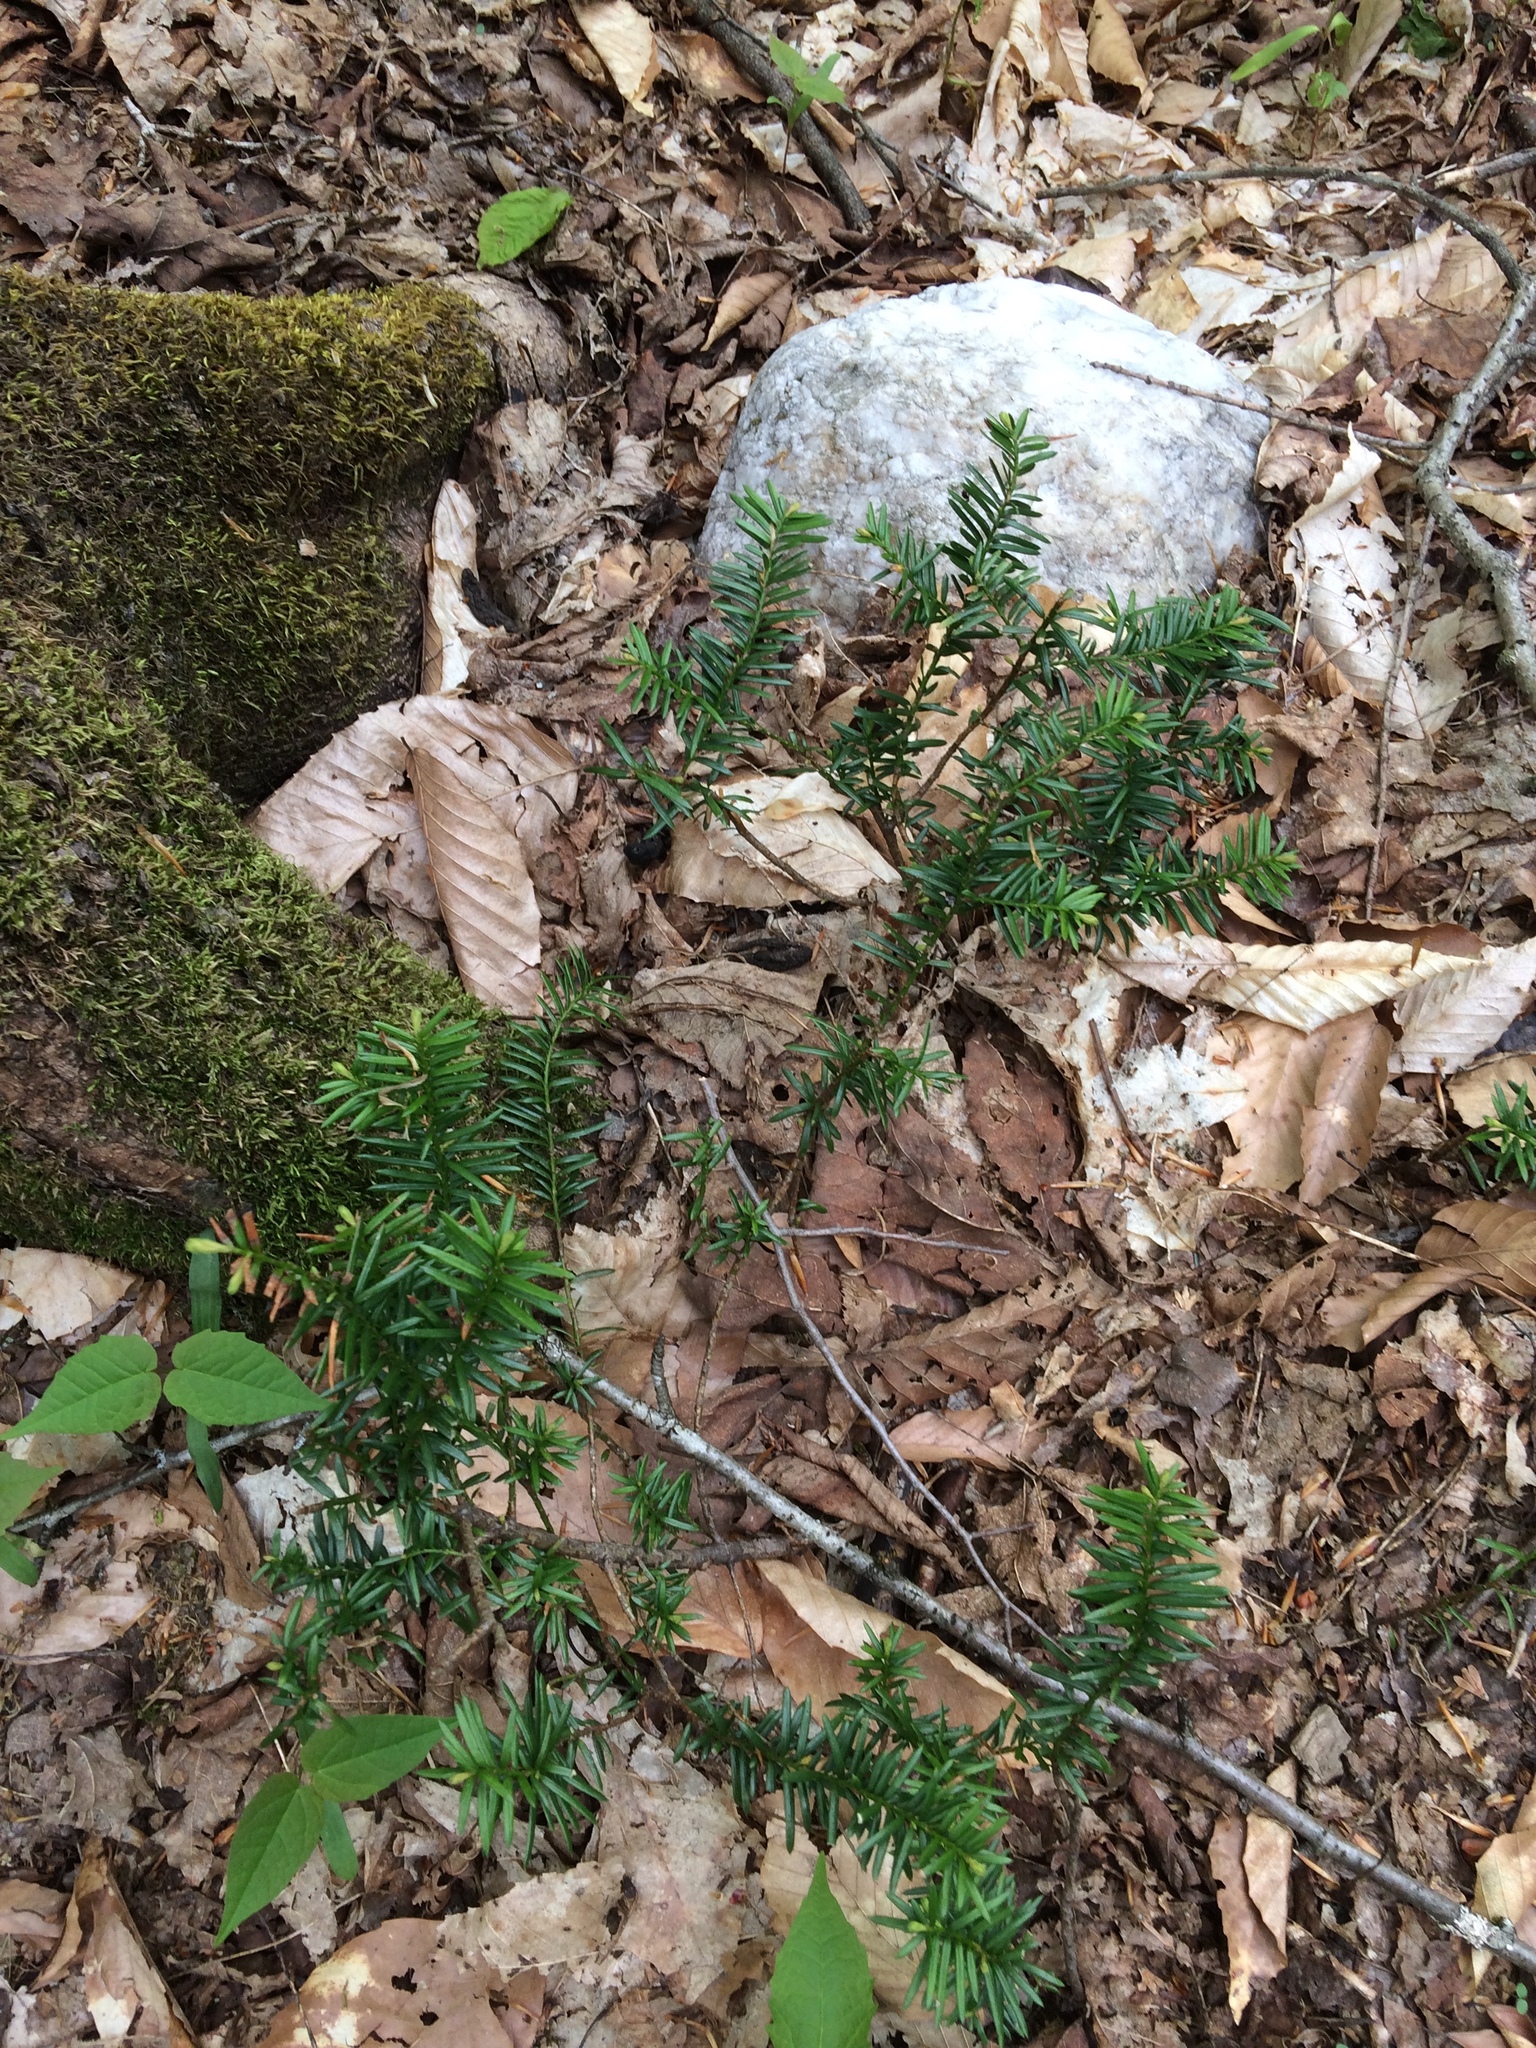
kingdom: Plantae
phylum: Tracheophyta
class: Pinopsida
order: Pinales
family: Taxaceae
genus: Taxus
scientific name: Taxus canadensis
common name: American yew
